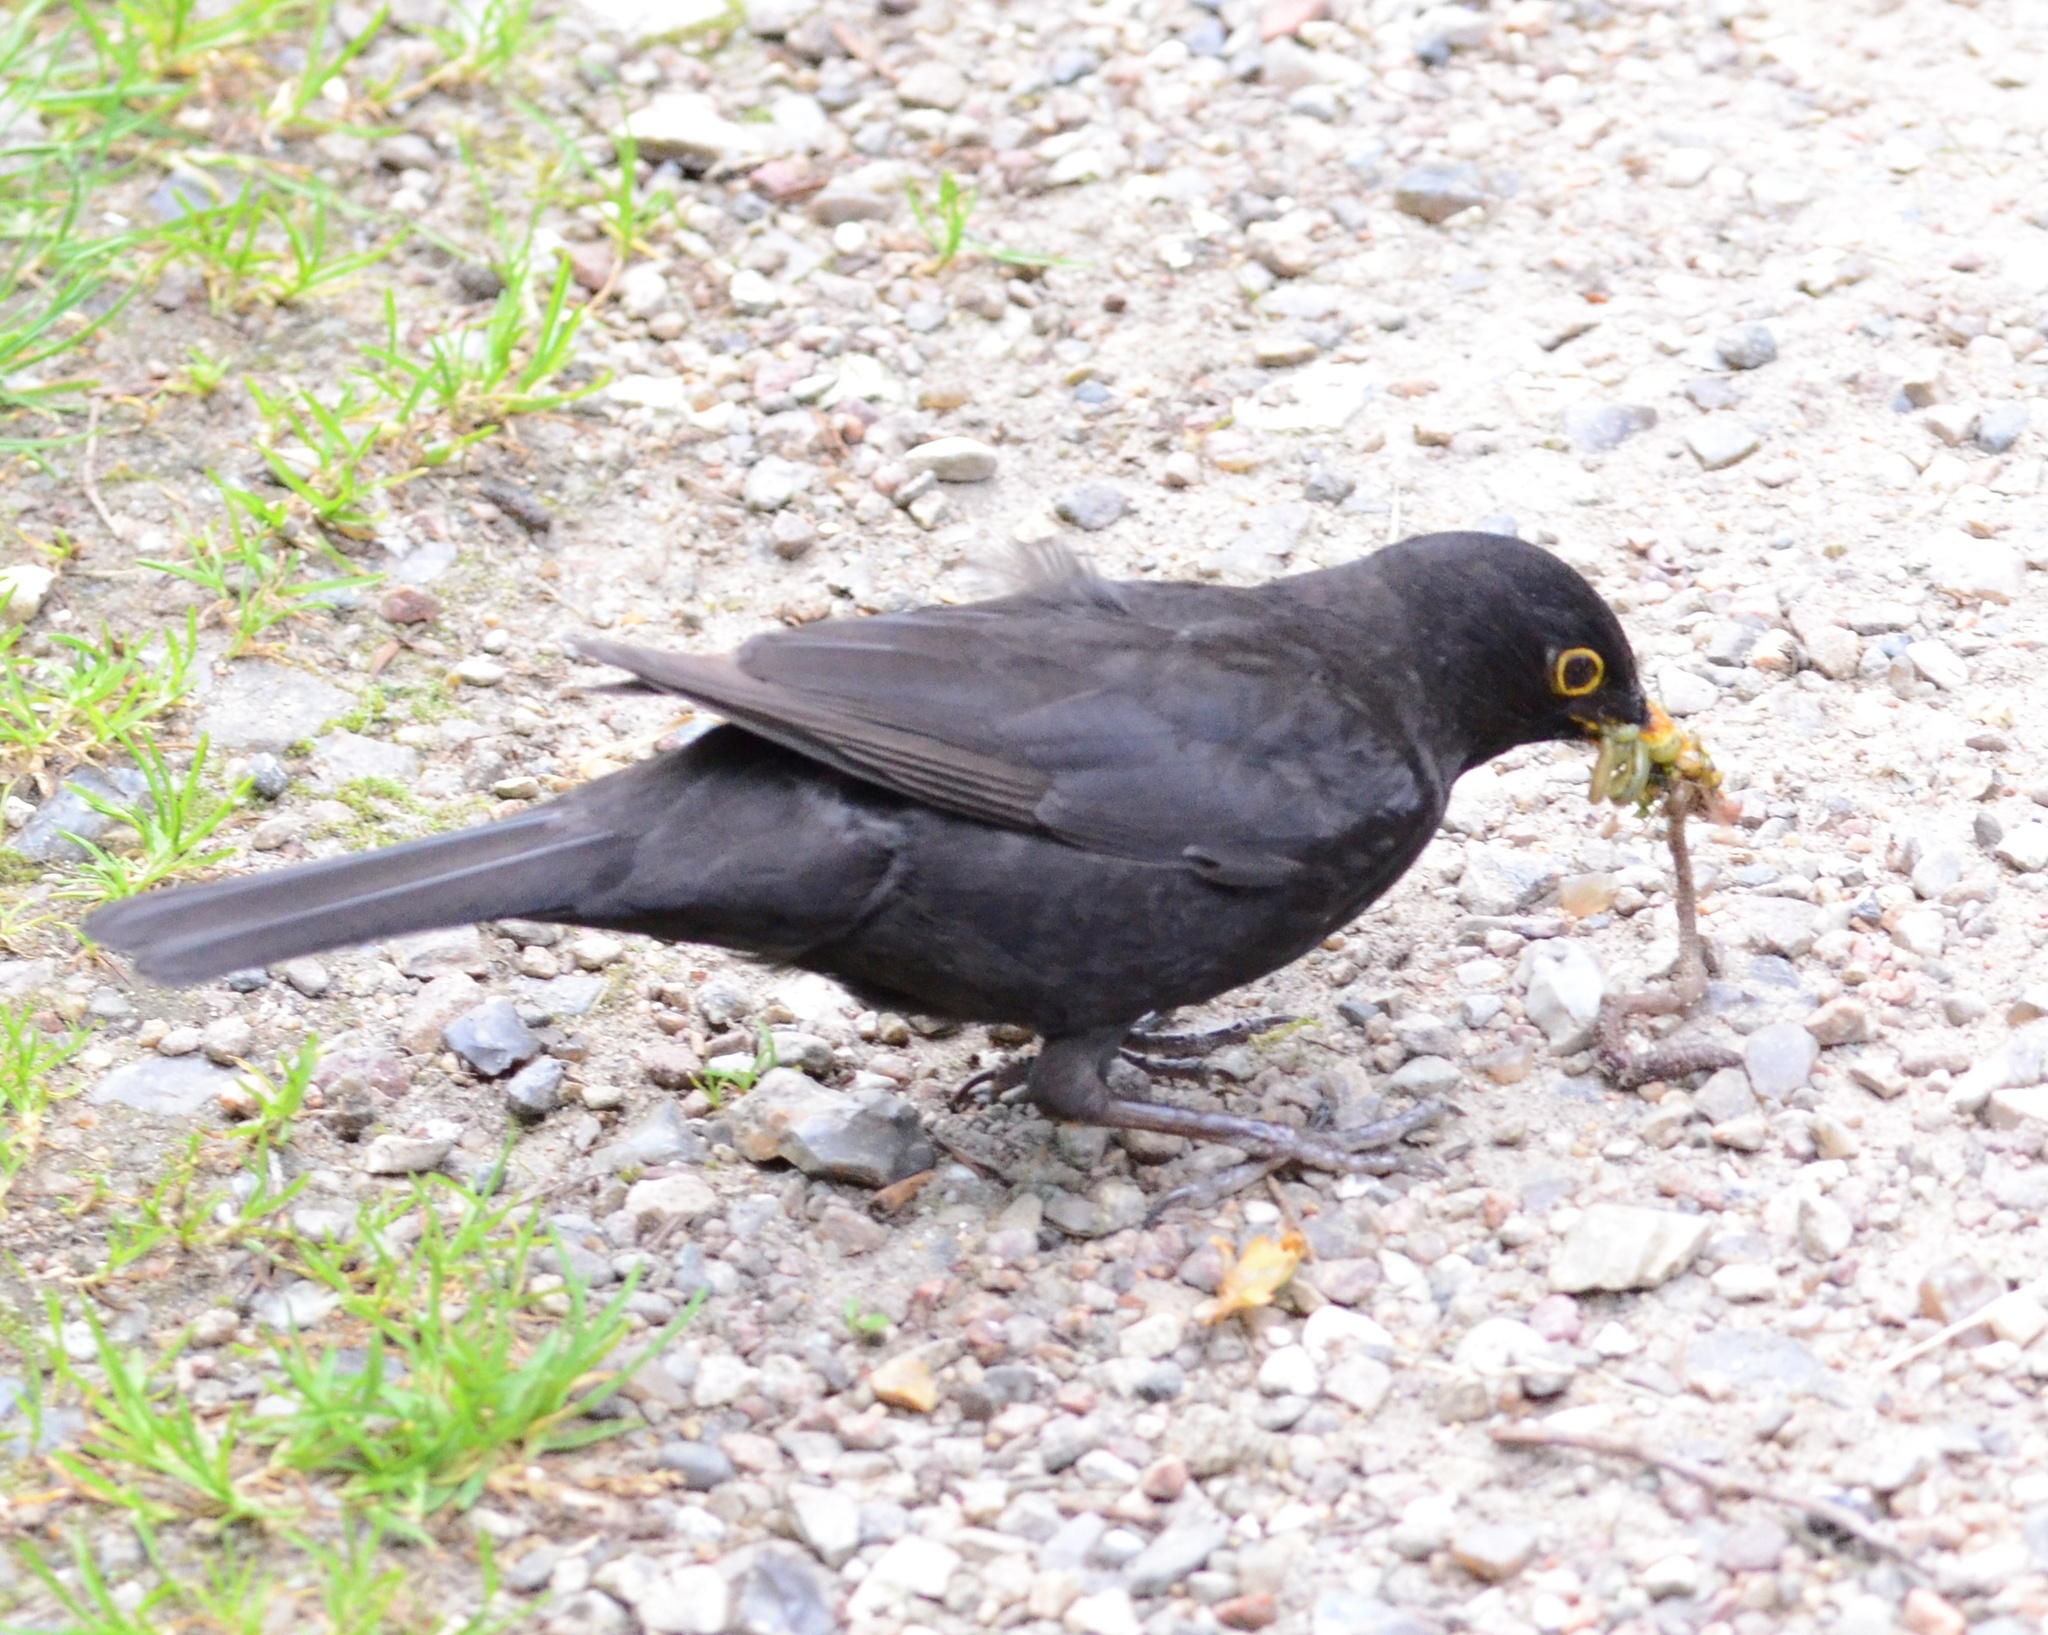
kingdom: Animalia
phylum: Chordata
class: Aves
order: Passeriformes
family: Turdidae
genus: Turdus
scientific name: Turdus merula
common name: Common blackbird
